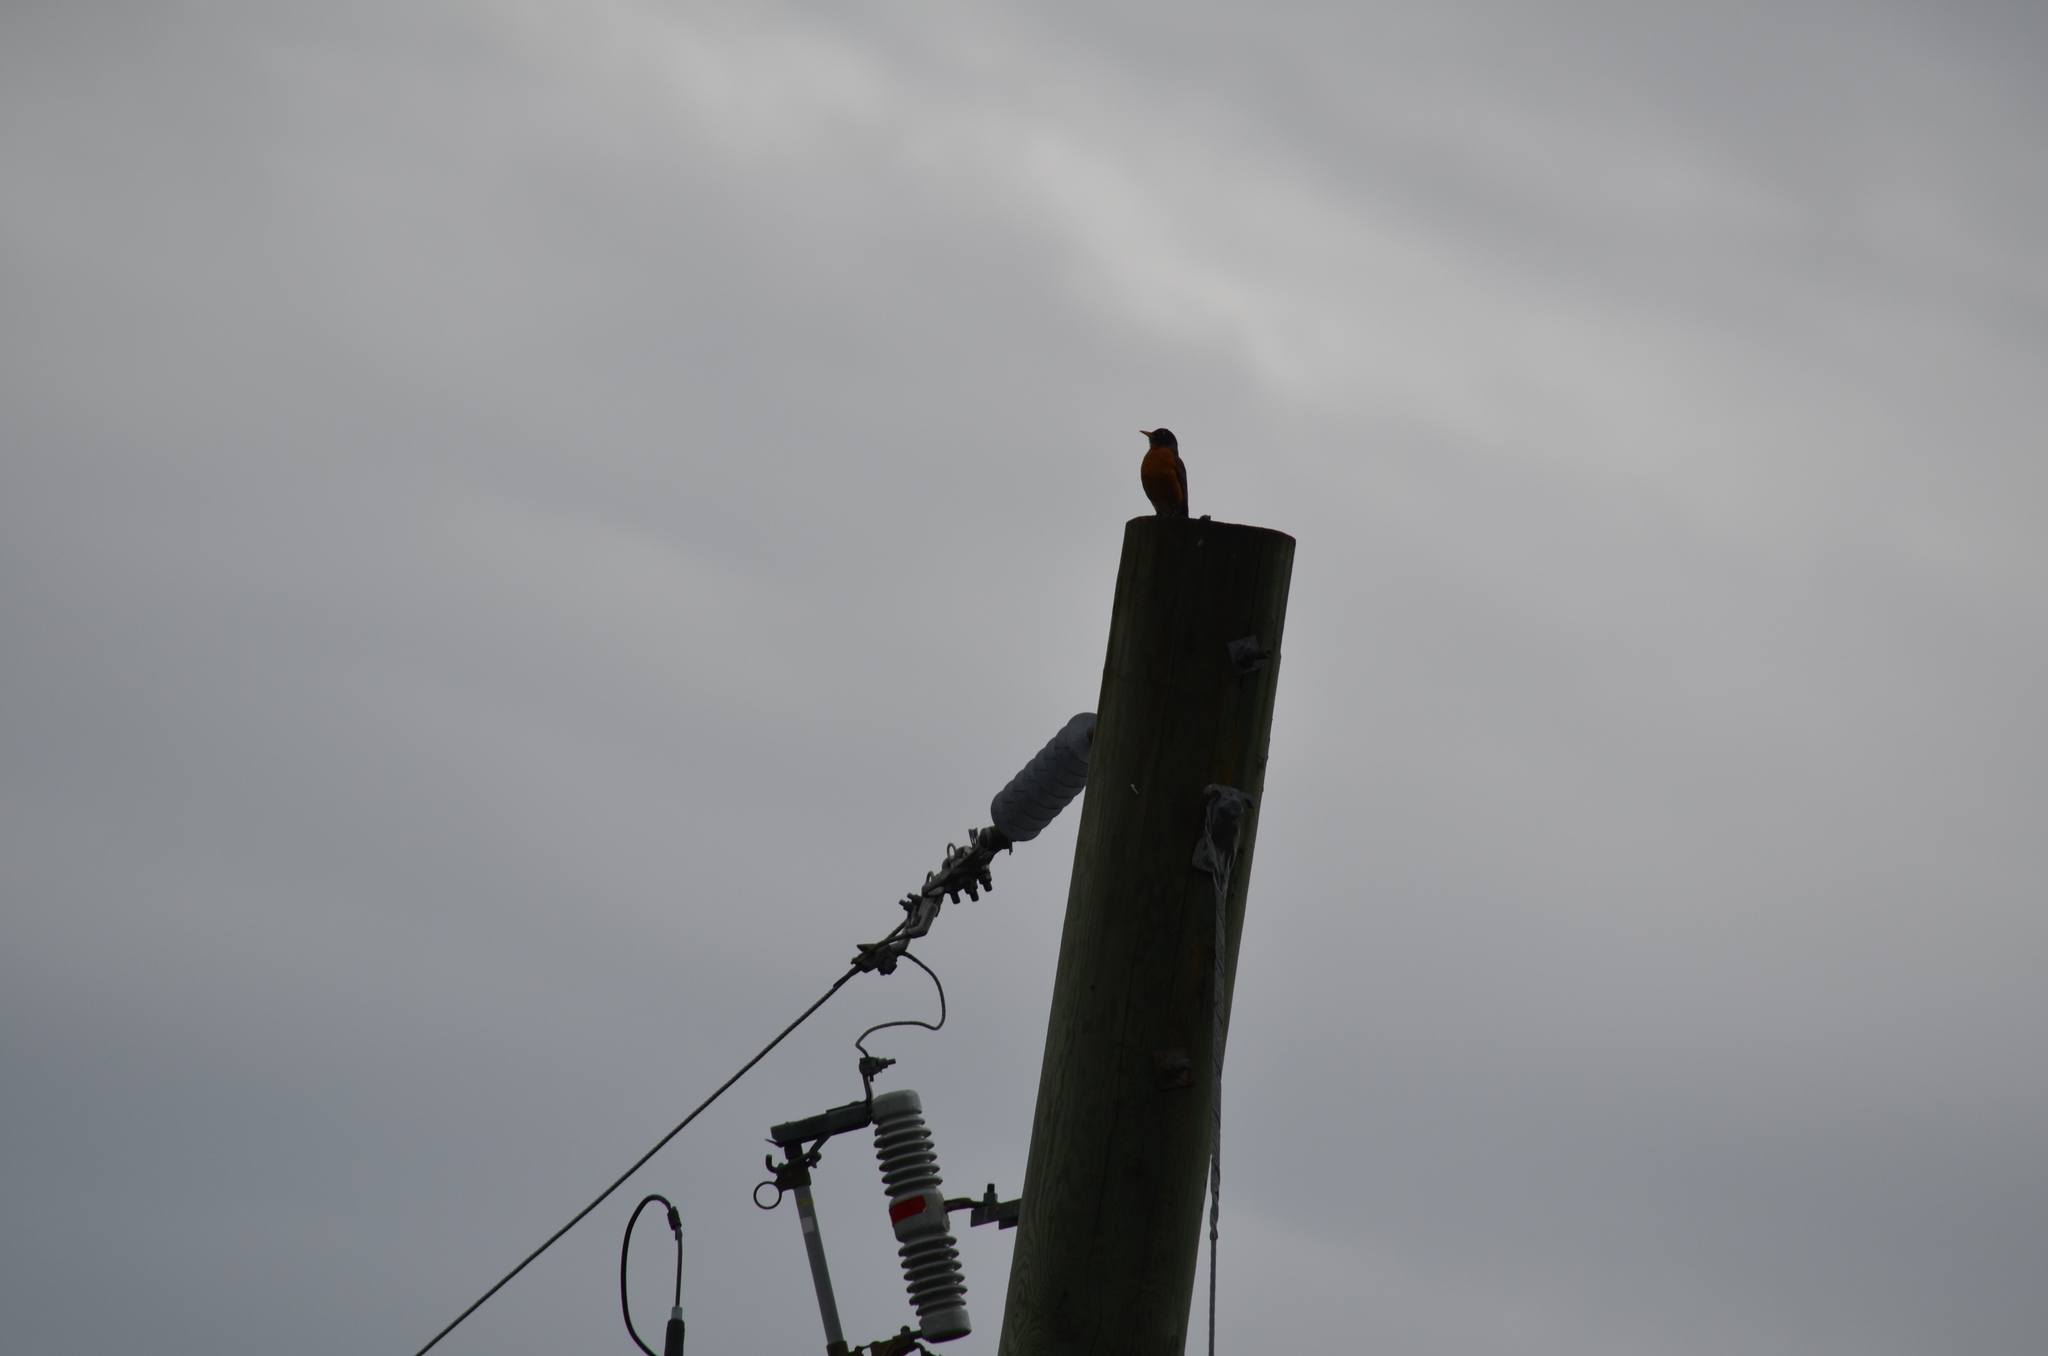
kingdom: Animalia
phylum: Chordata
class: Aves
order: Passeriformes
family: Turdidae
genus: Turdus
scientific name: Turdus migratorius
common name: American robin
